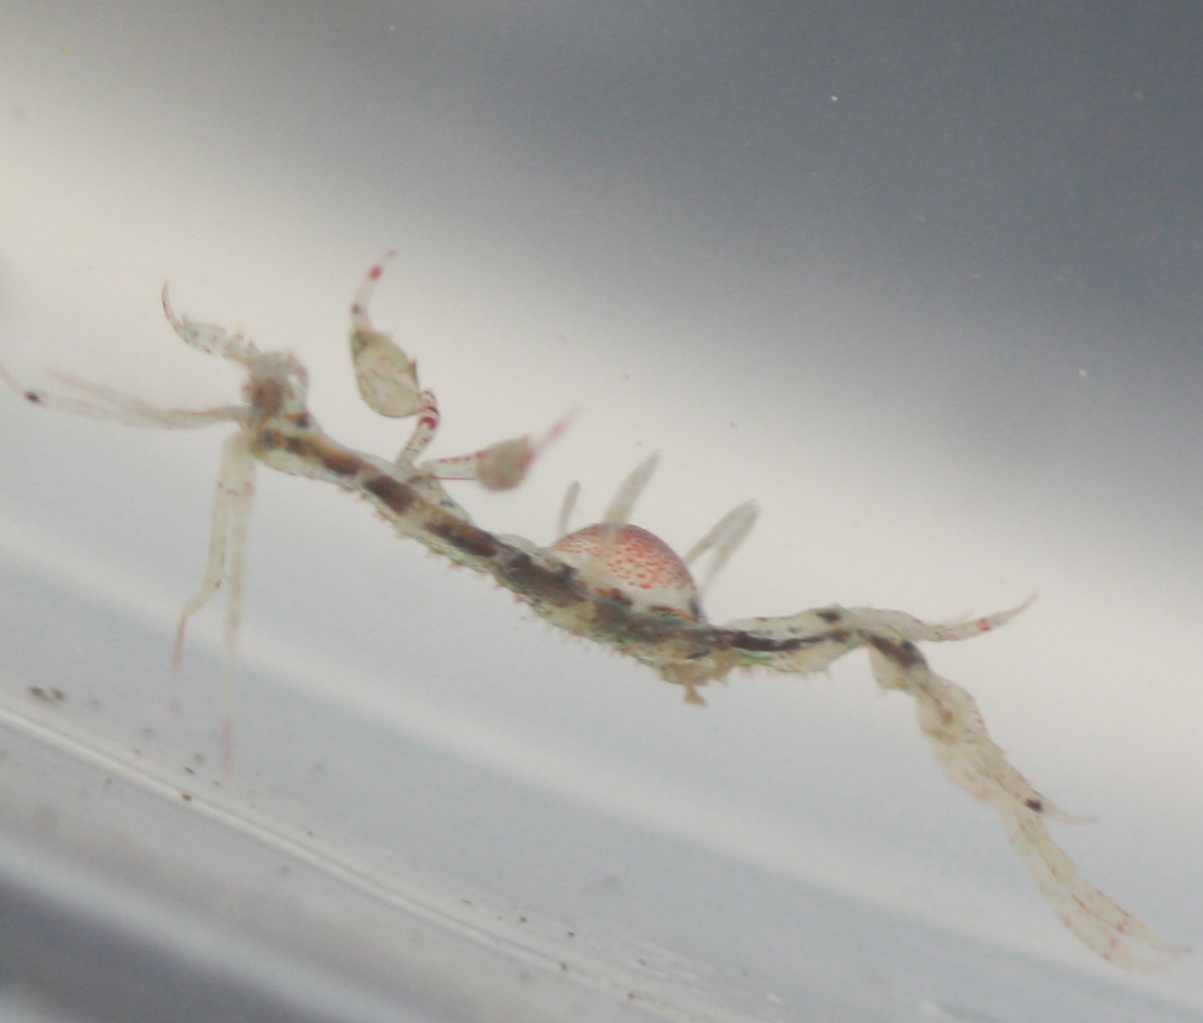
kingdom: Animalia
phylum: Arthropoda
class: Malacostraca
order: Amphipoda
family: Caprellidae
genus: Caprella
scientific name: Caprella mutica
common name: Japanese skeleton shrimp
